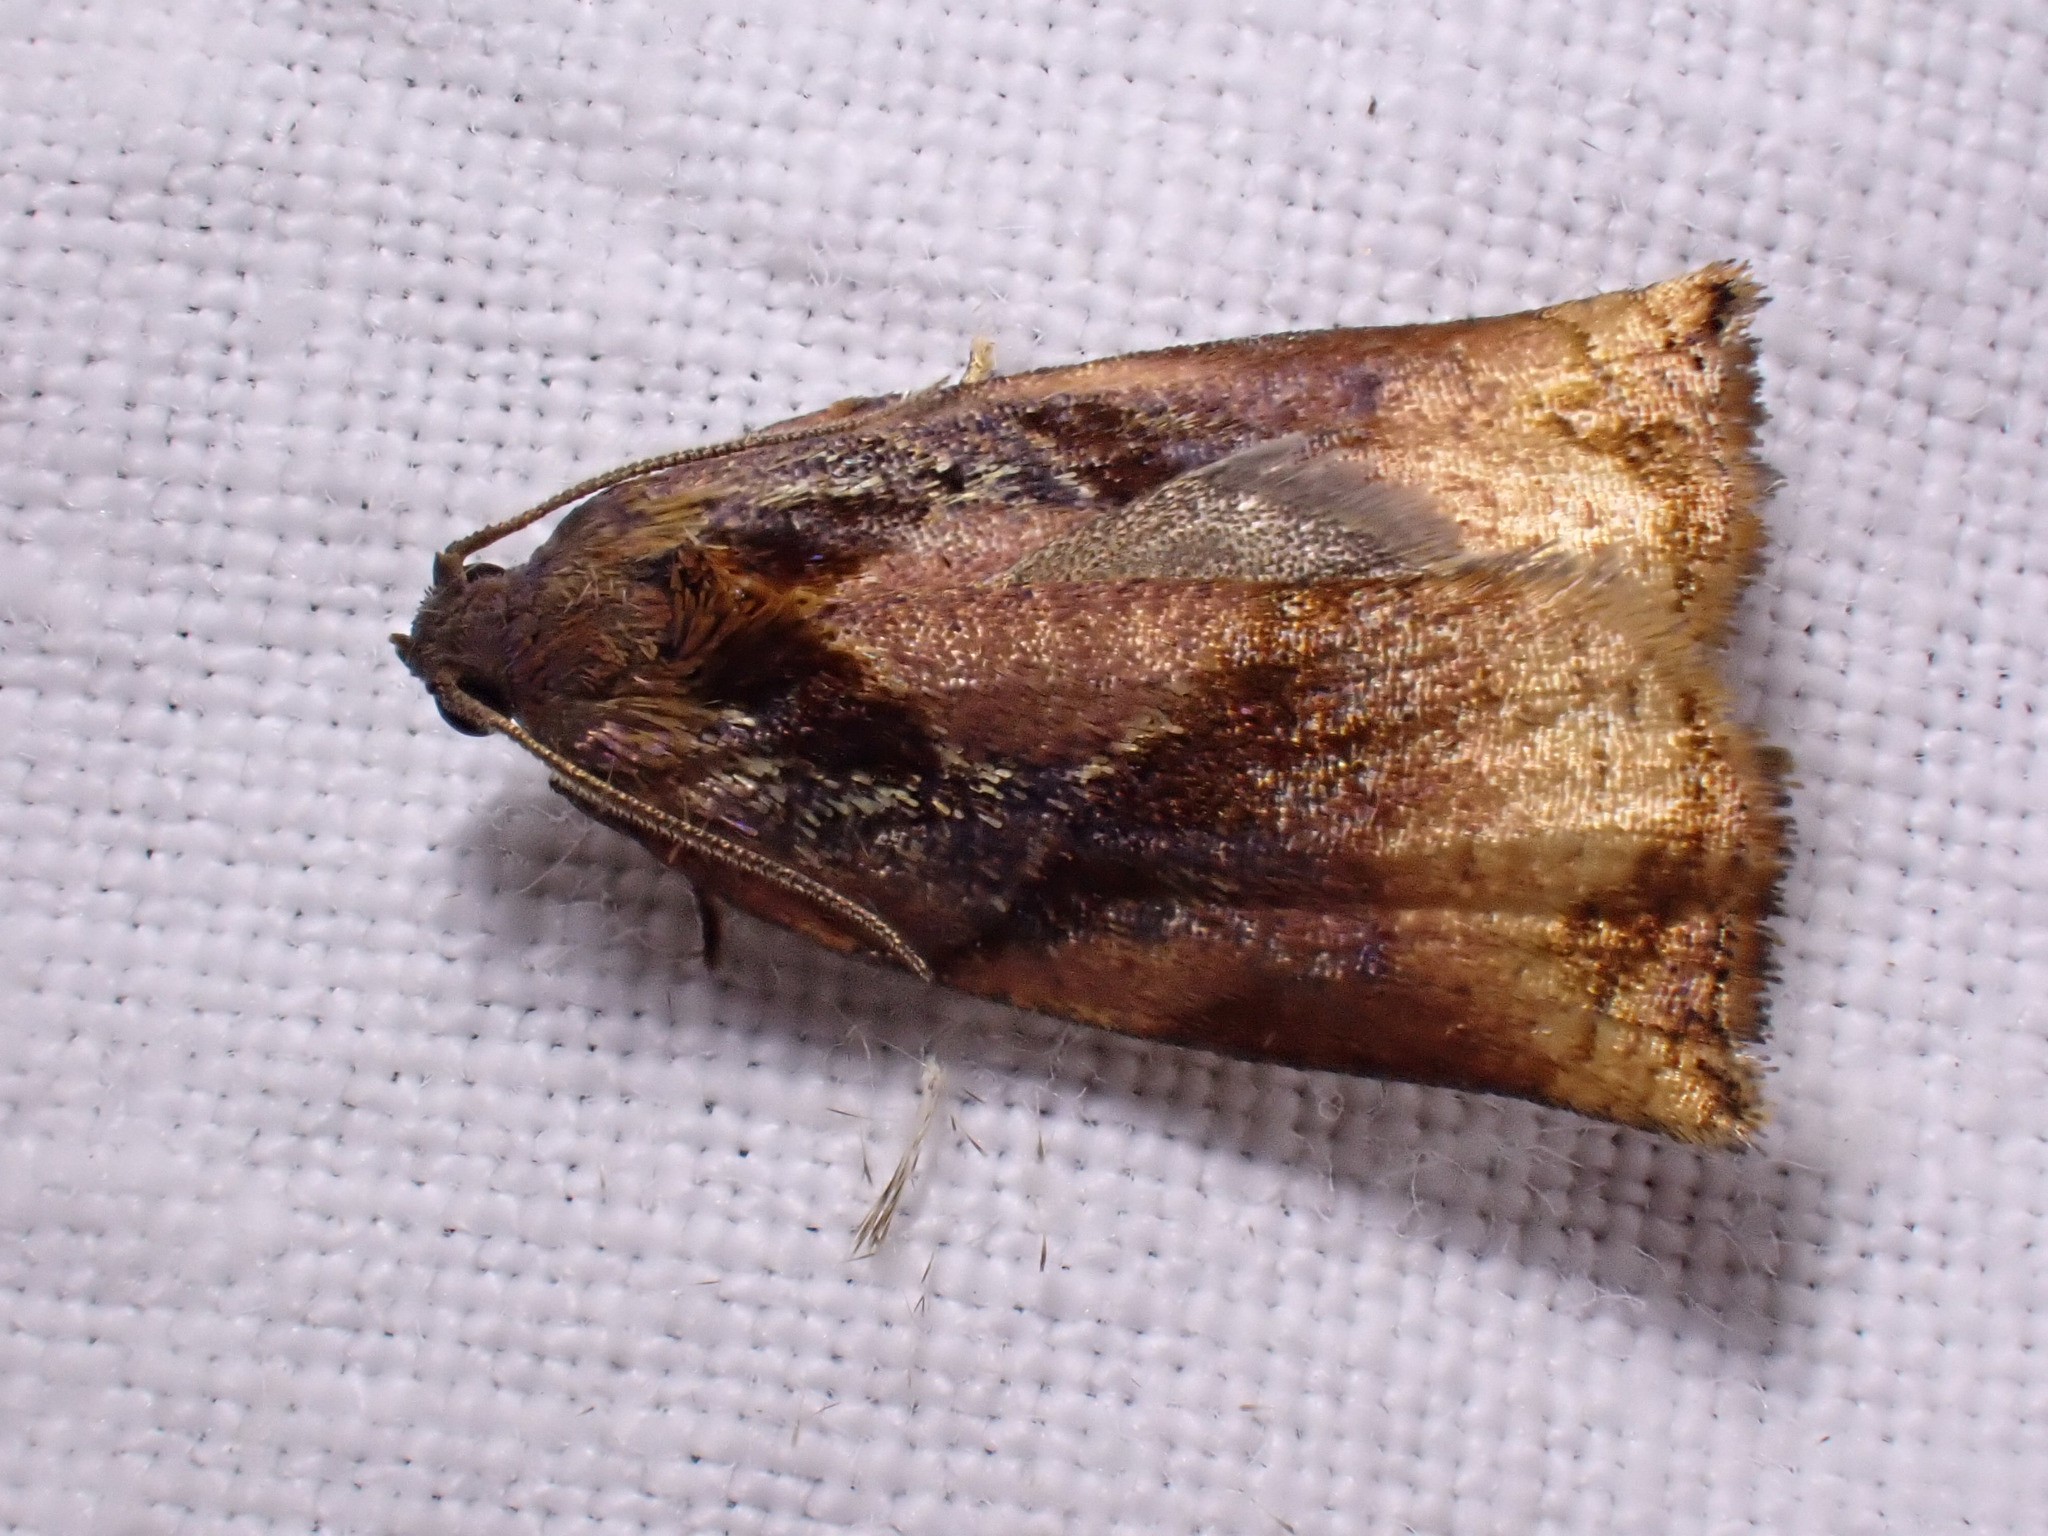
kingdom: Animalia
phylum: Arthropoda
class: Insecta
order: Lepidoptera
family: Tortricidae
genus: Archips
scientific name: Archips podana
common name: Large fruit-tree tortrix
